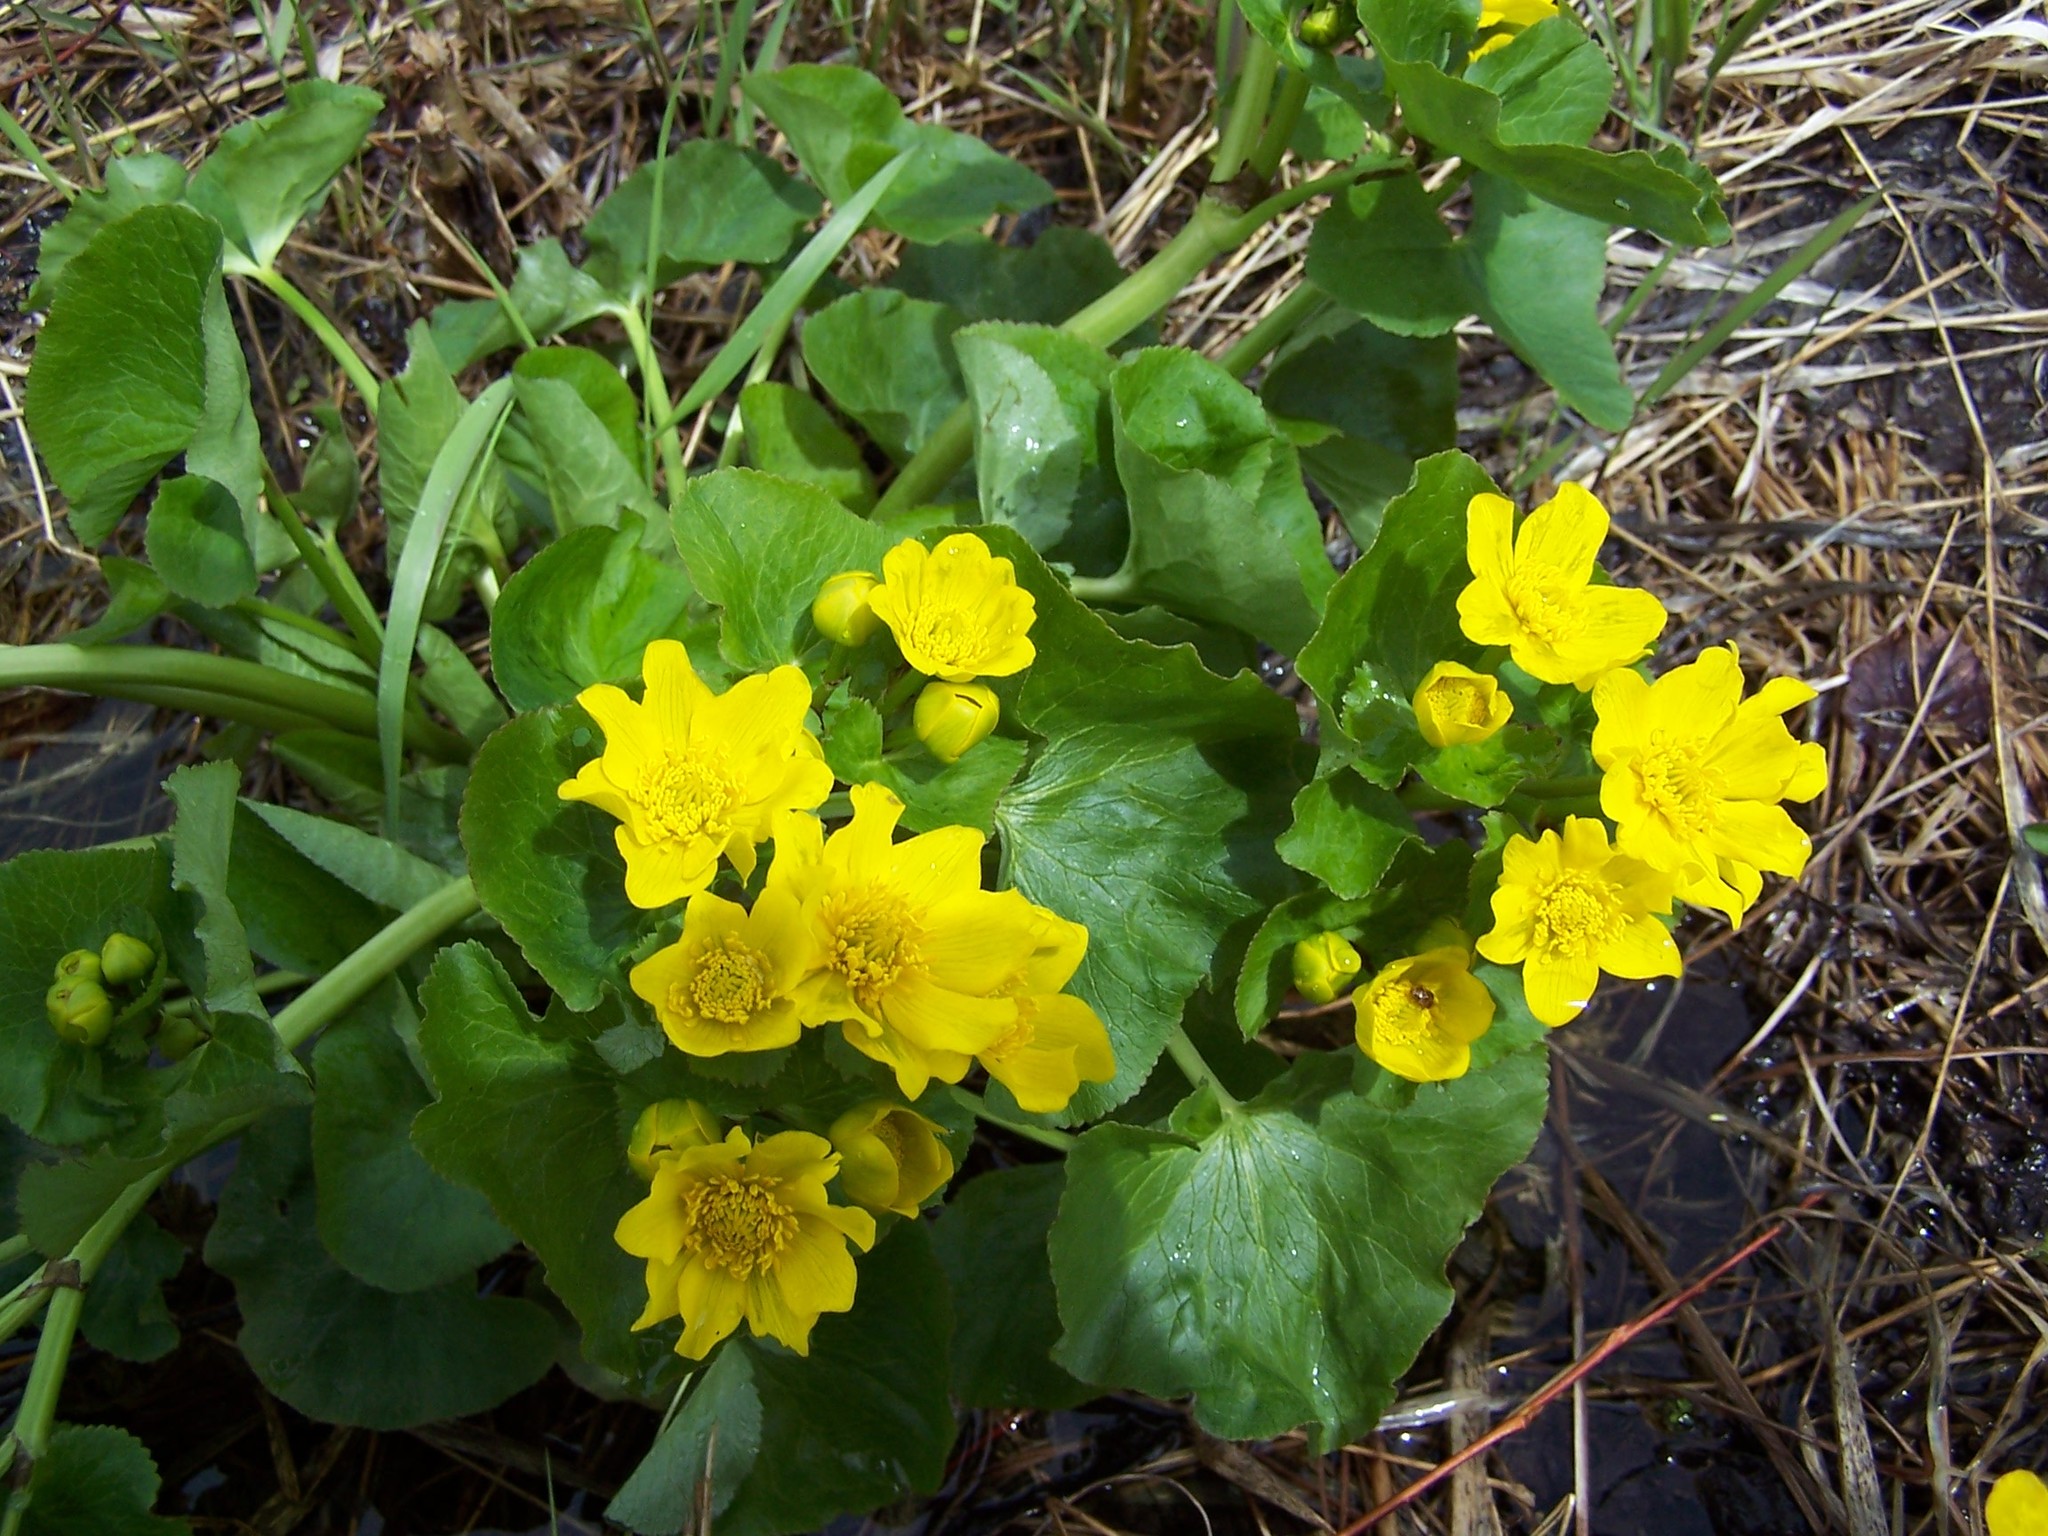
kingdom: Plantae
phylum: Tracheophyta
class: Magnoliopsida
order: Ranunculales
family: Ranunculaceae
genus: Caltha
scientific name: Caltha palustris
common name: Marsh marigold
